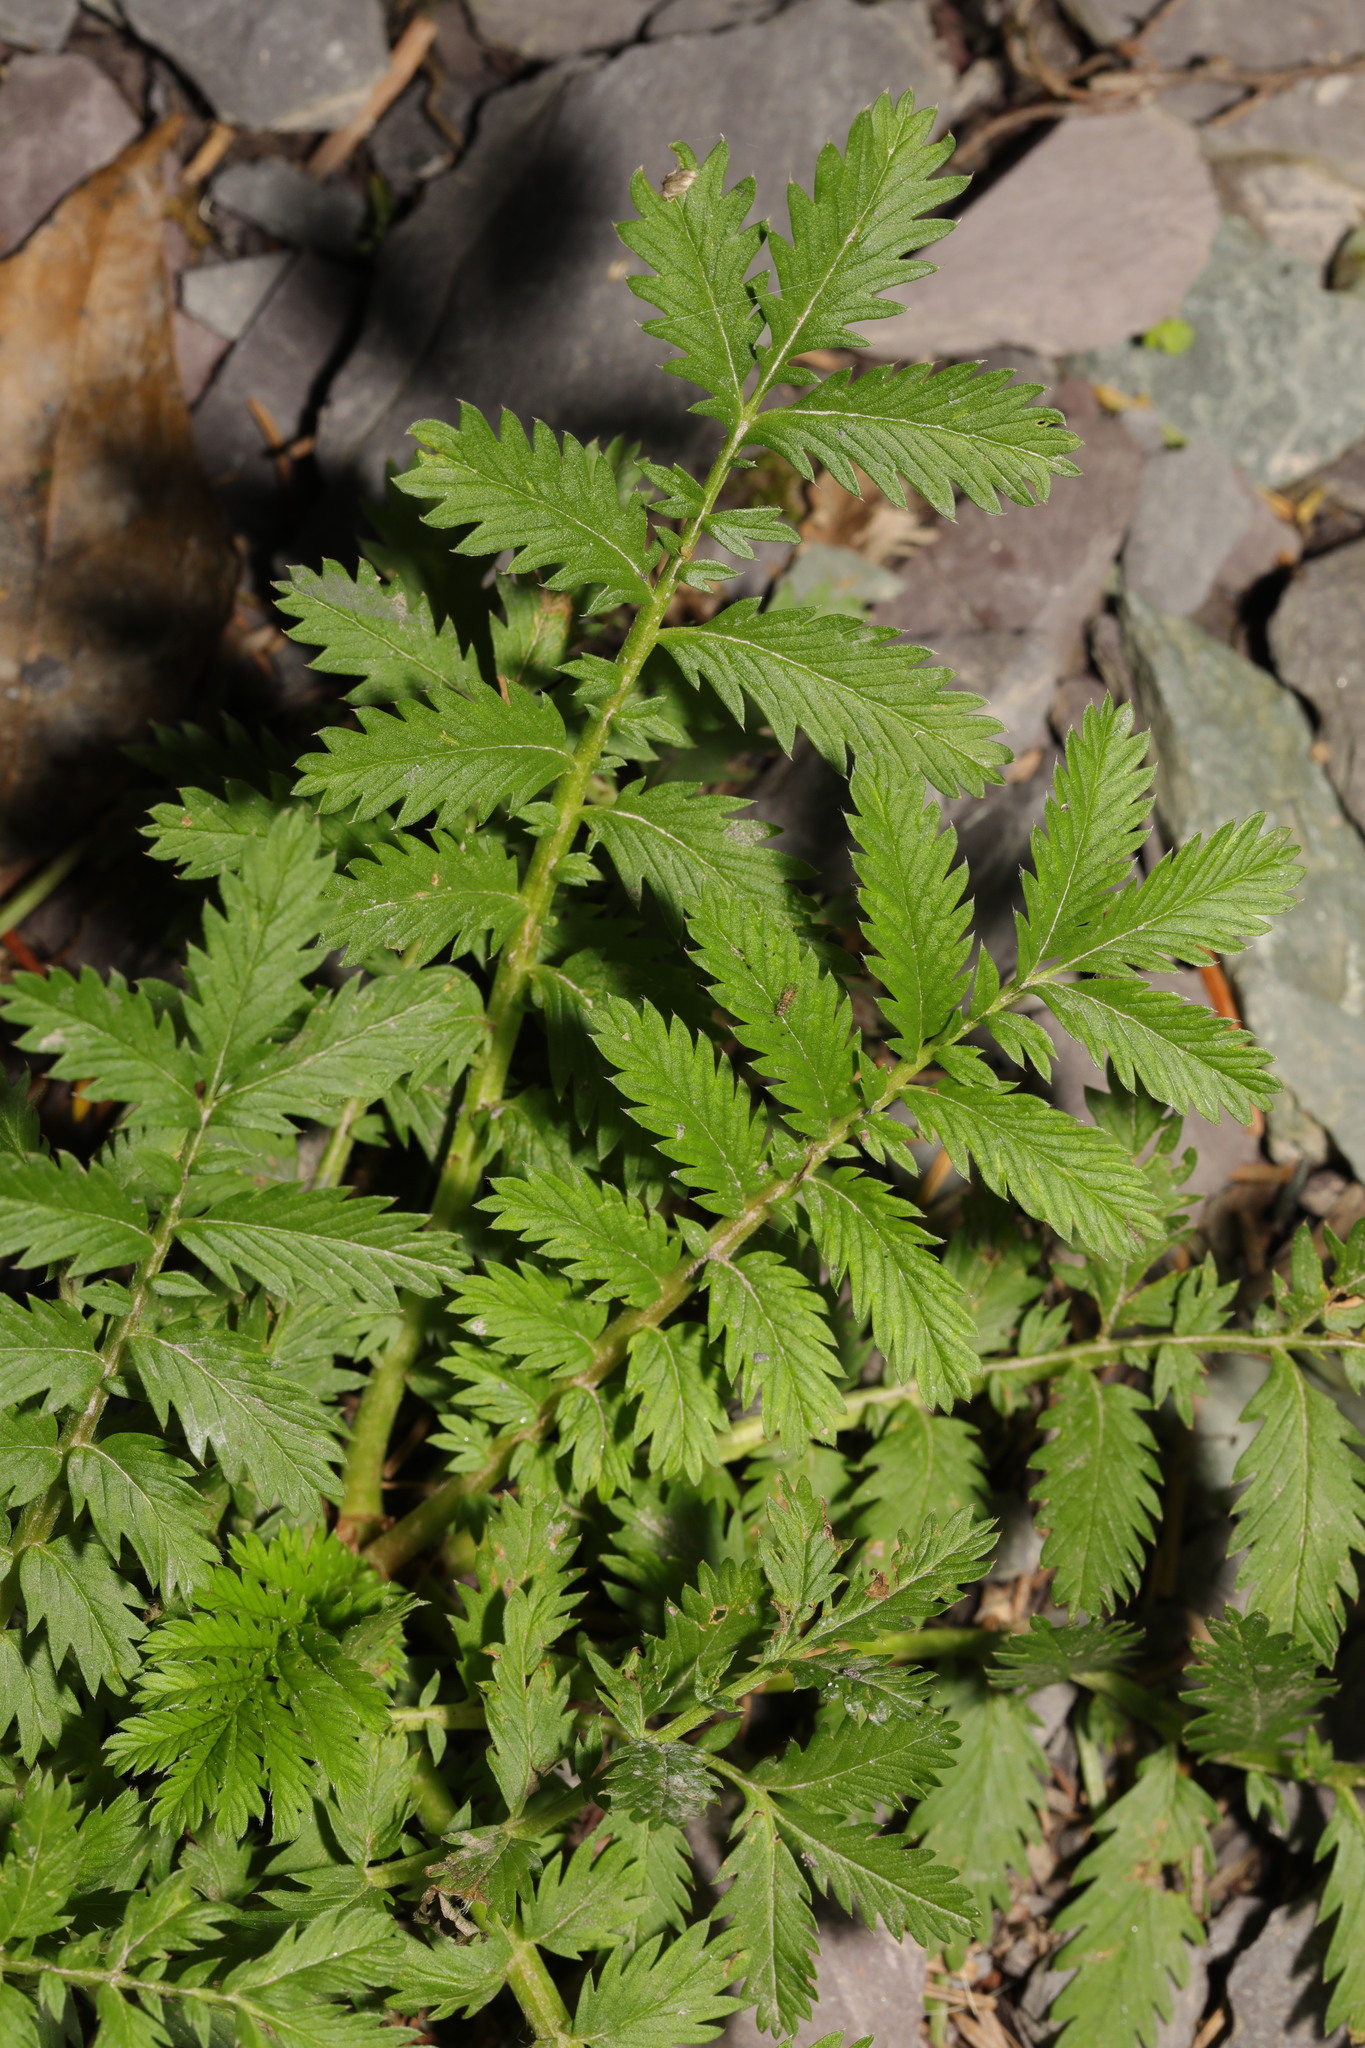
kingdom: Plantae
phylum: Tracheophyta
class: Magnoliopsida
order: Rosales
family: Rosaceae
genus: Argentina
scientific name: Argentina anserina
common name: Common silverweed
